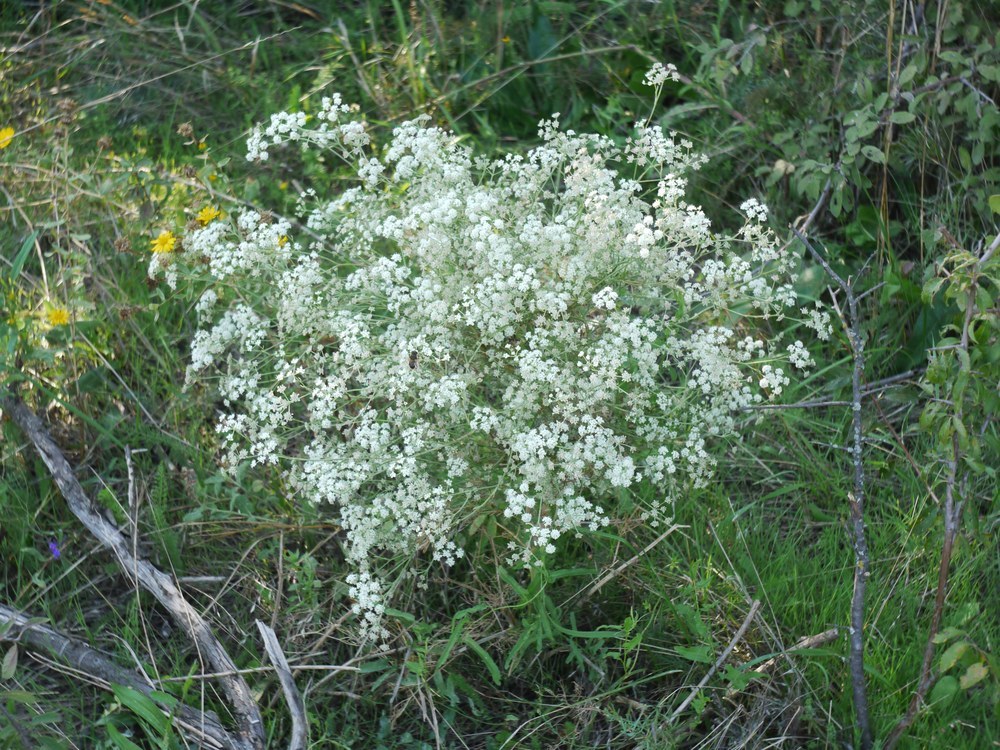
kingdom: Plantae
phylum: Tracheophyta
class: Magnoliopsida
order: Apiales
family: Apiaceae
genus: Seseli
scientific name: Seseli arenarium
